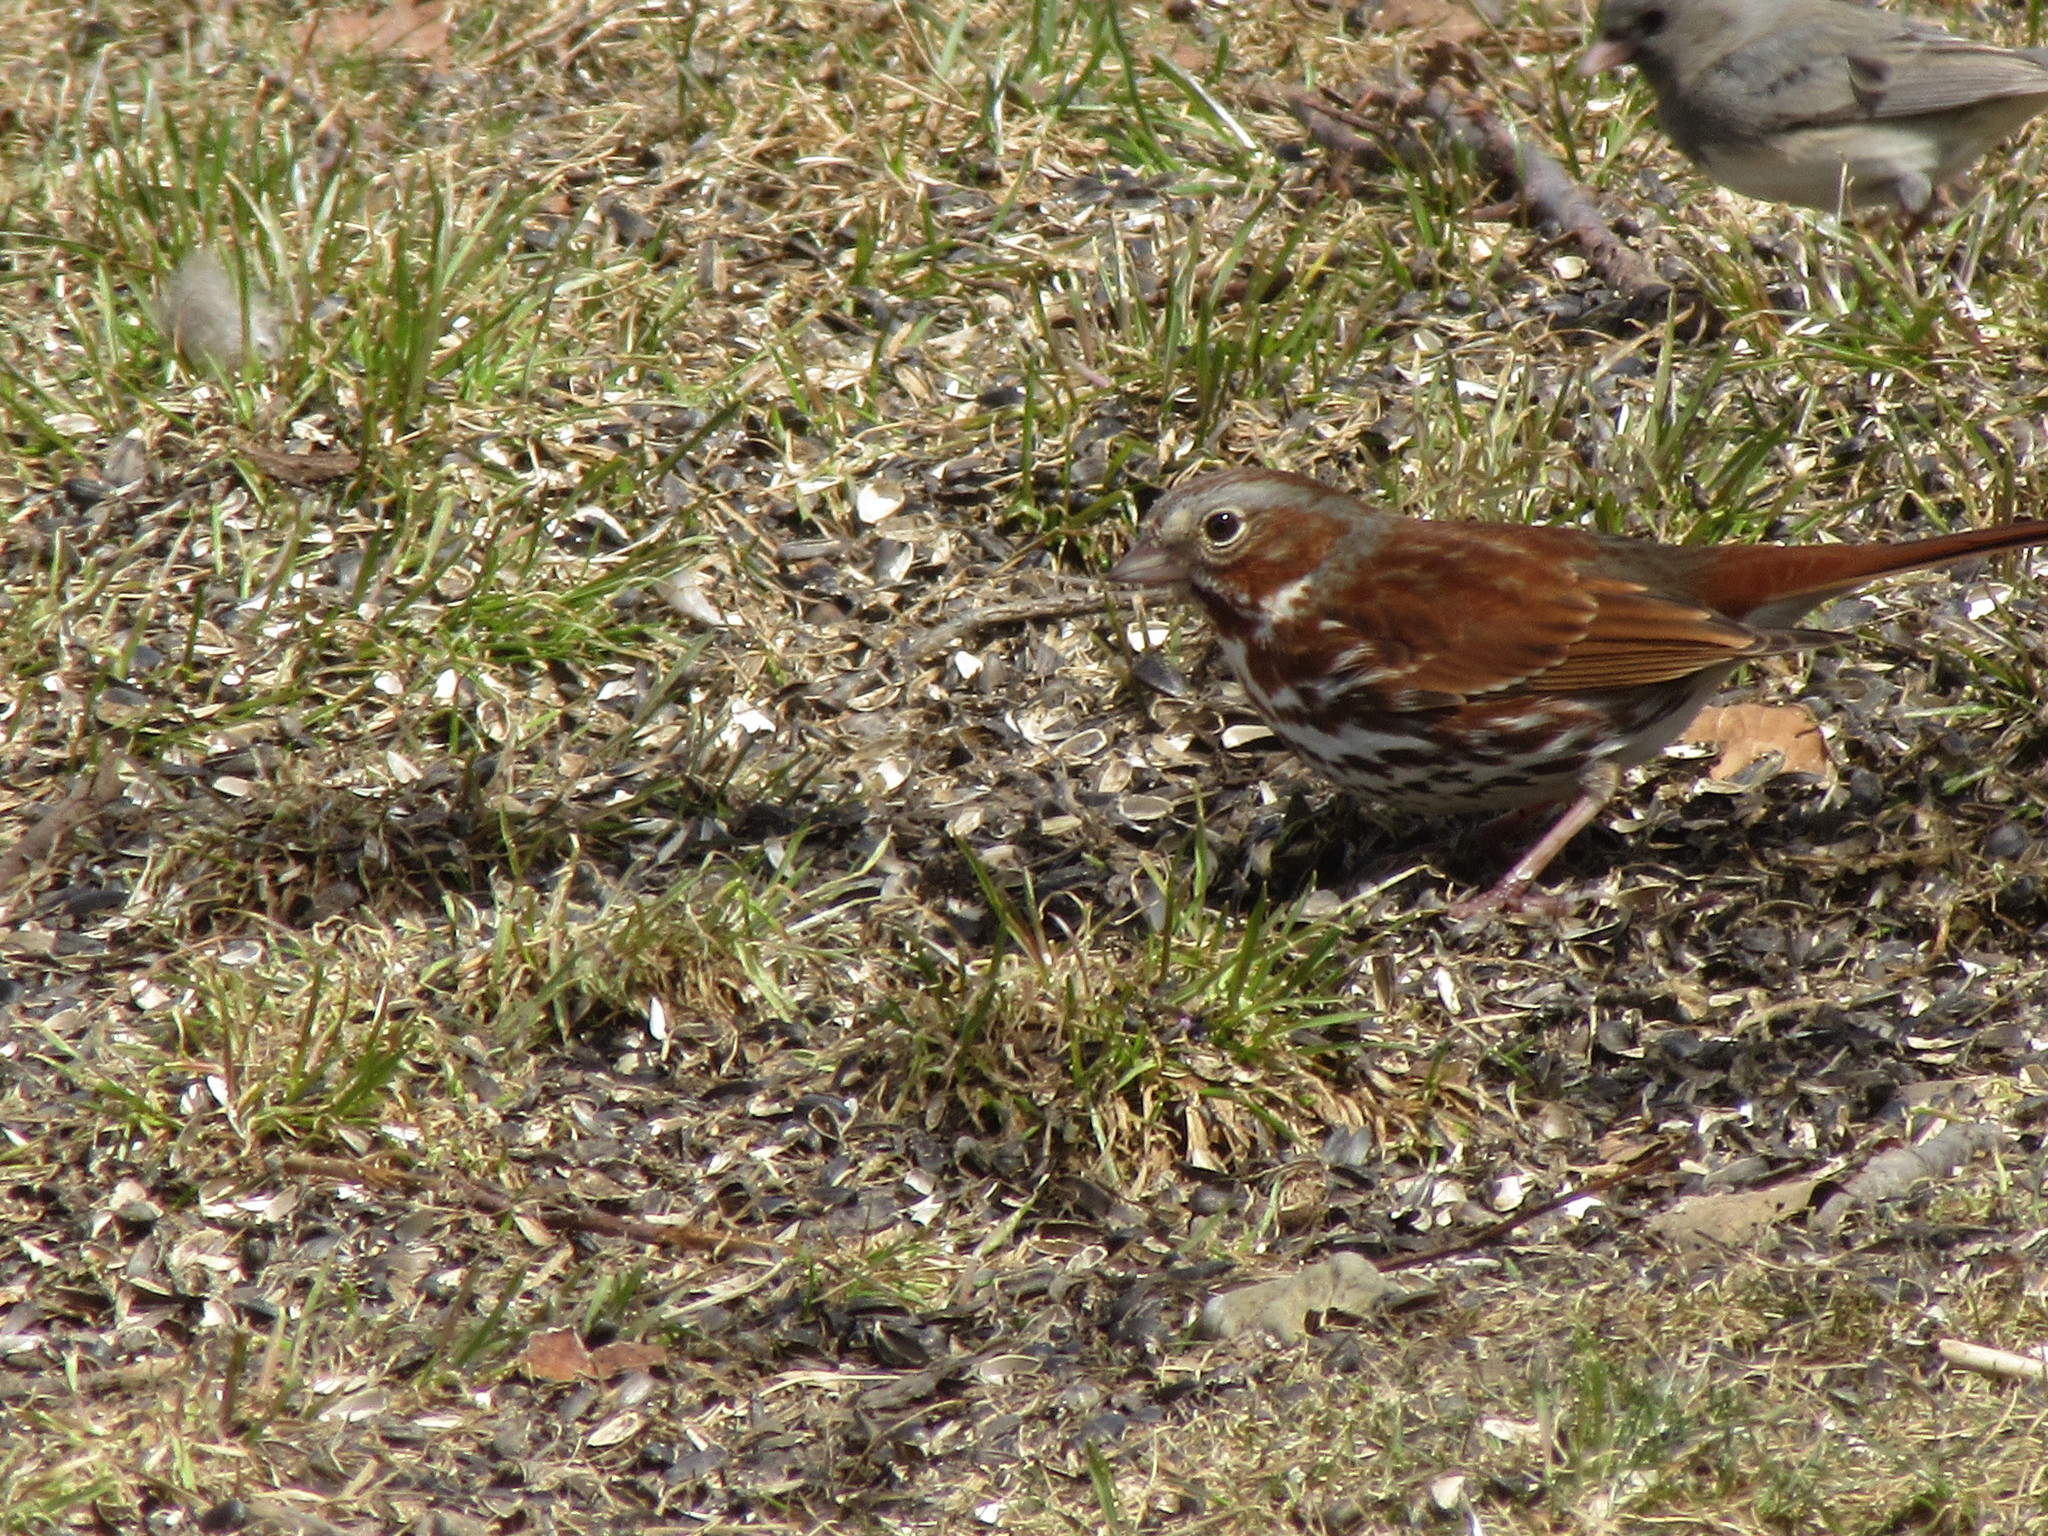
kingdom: Animalia
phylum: Chordata
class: Aves
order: Passeriformes
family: Passerellidae
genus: Passerella
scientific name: Passerella iliaca
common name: Fox sparrow
